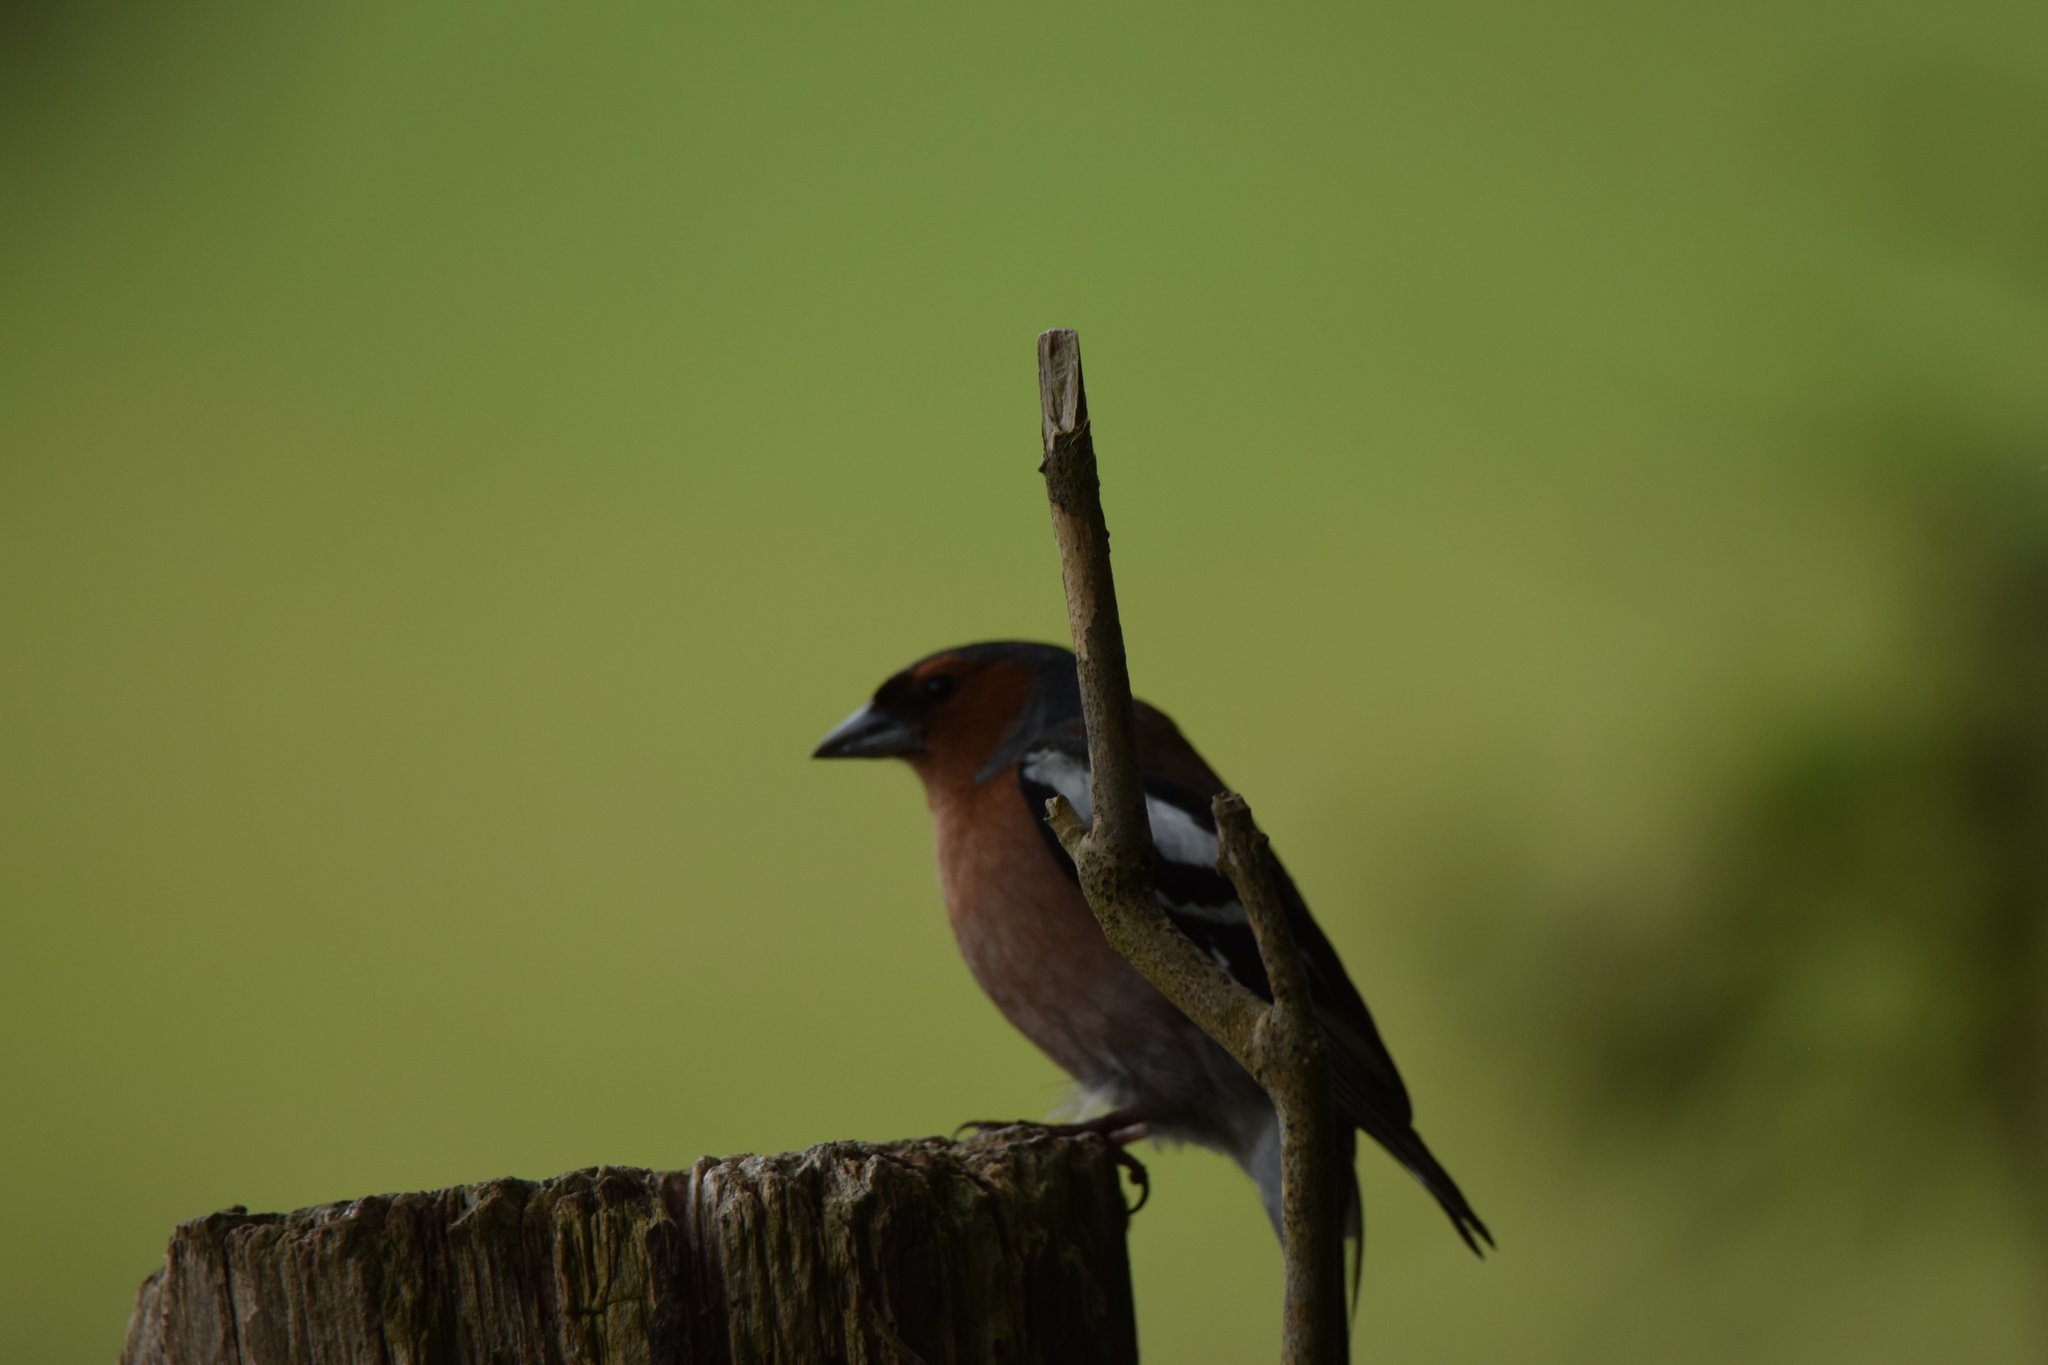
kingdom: Animalia
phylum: Chordata
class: Aves
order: Passeriformes
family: Fringillidae
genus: Fringilla
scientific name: Fringilla coelebs
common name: Common chaffinch
